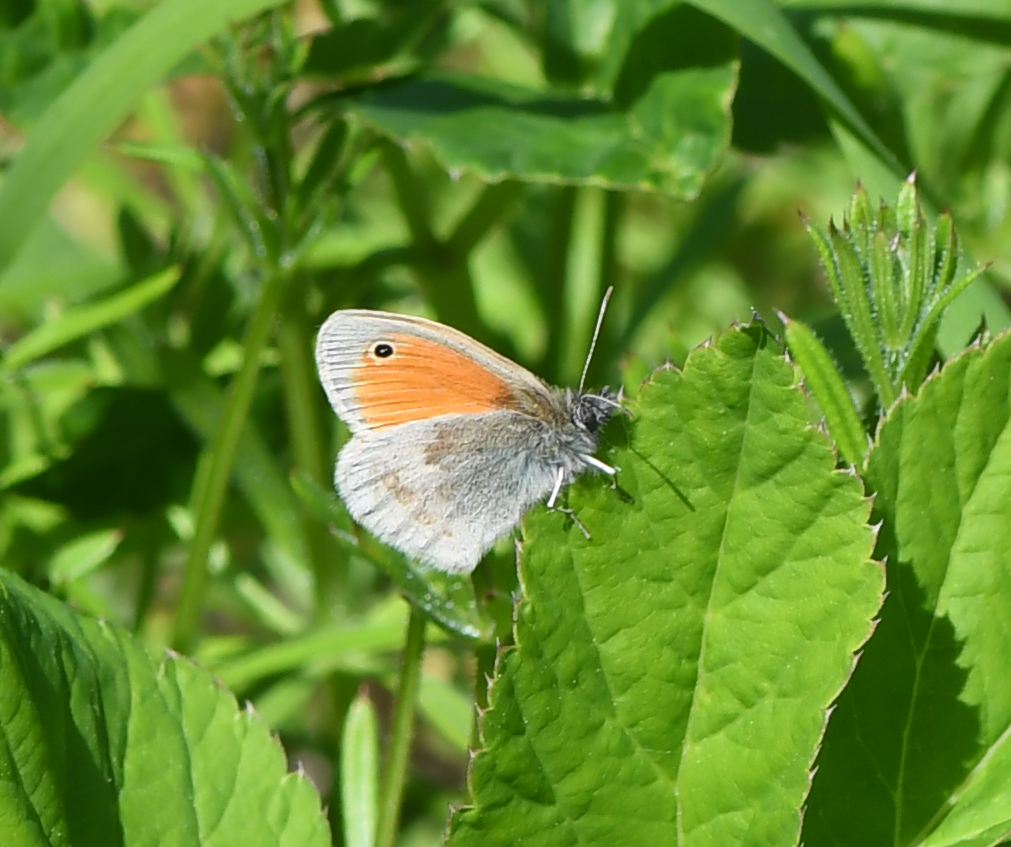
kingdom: Animalia
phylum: Arthropoda
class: Insecta
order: Lepidoptera
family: Nymphalidae
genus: Coenonympha
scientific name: Coenonympha pamphilus
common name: Small heath
